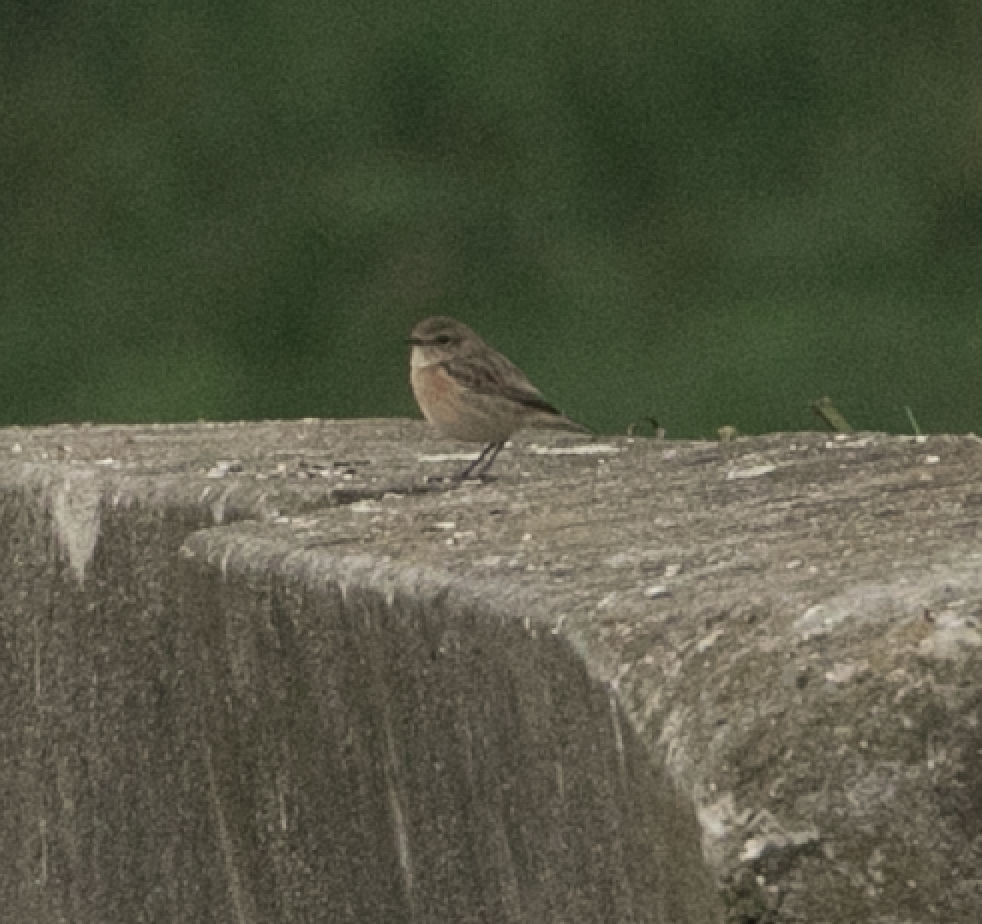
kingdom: Animalia
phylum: Chordata
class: Aves
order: Passeriformes
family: Muscicapidae
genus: Saxicola
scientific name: Saxicola rubicola
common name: European stonechat
